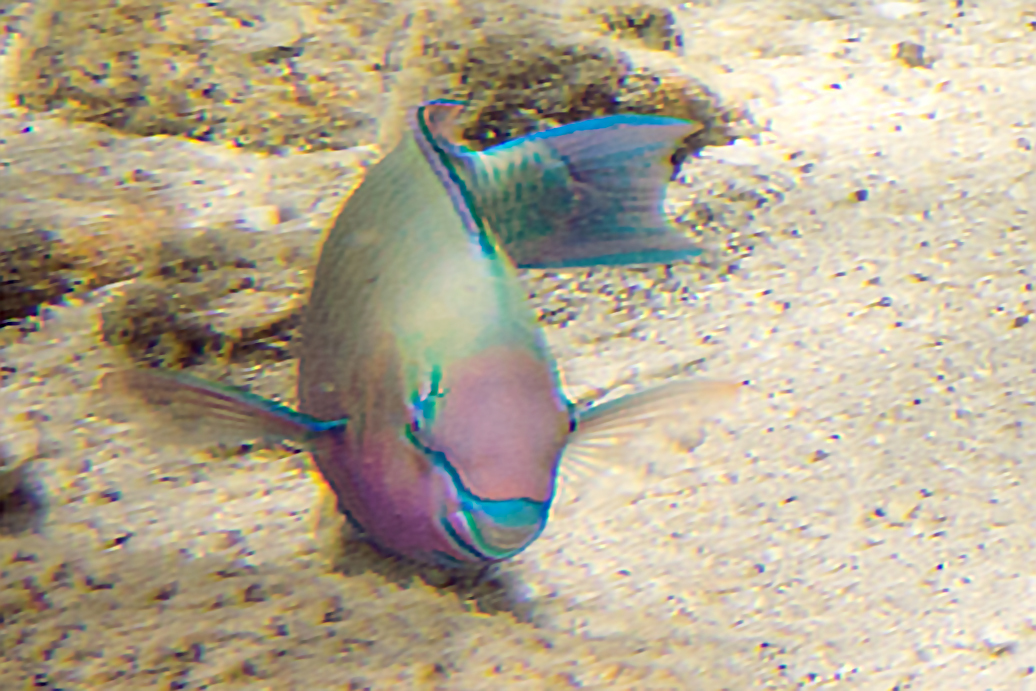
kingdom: Animalia
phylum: Chordata
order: Perciformes
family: Scaridae
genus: Scarus
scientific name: Scarus psittacus
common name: Palenose parrotfish
